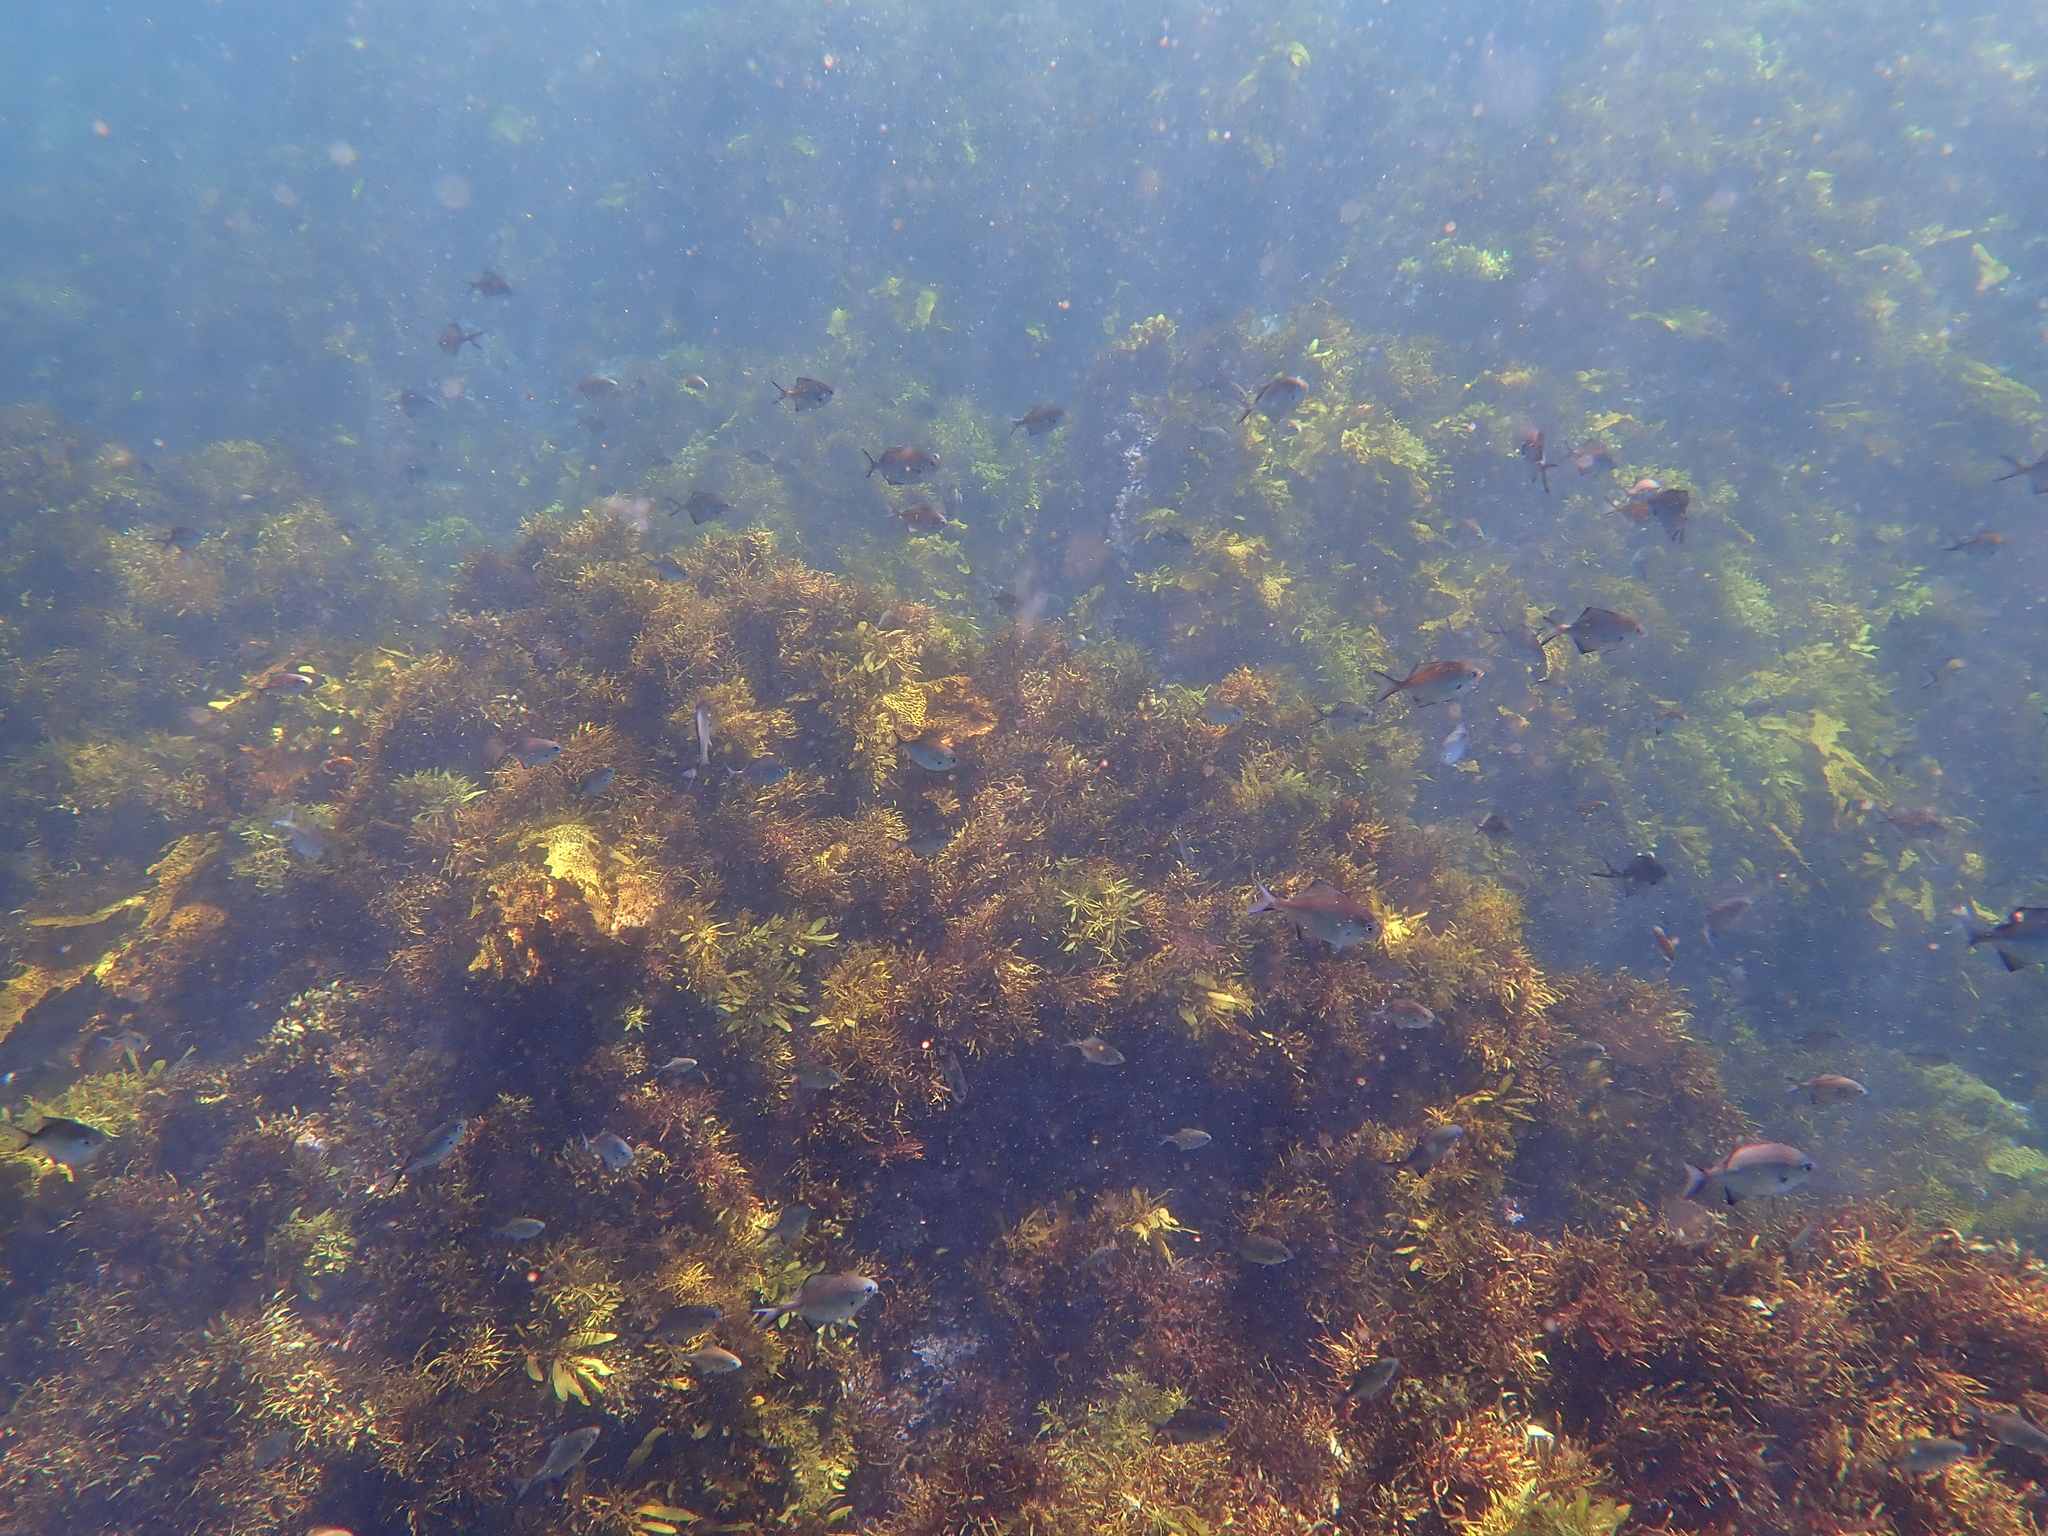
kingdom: Animalia
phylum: Chordata
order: Perciformes
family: Kyphosidae
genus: Scorpis
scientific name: Scorpis lineolata
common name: Sweep
